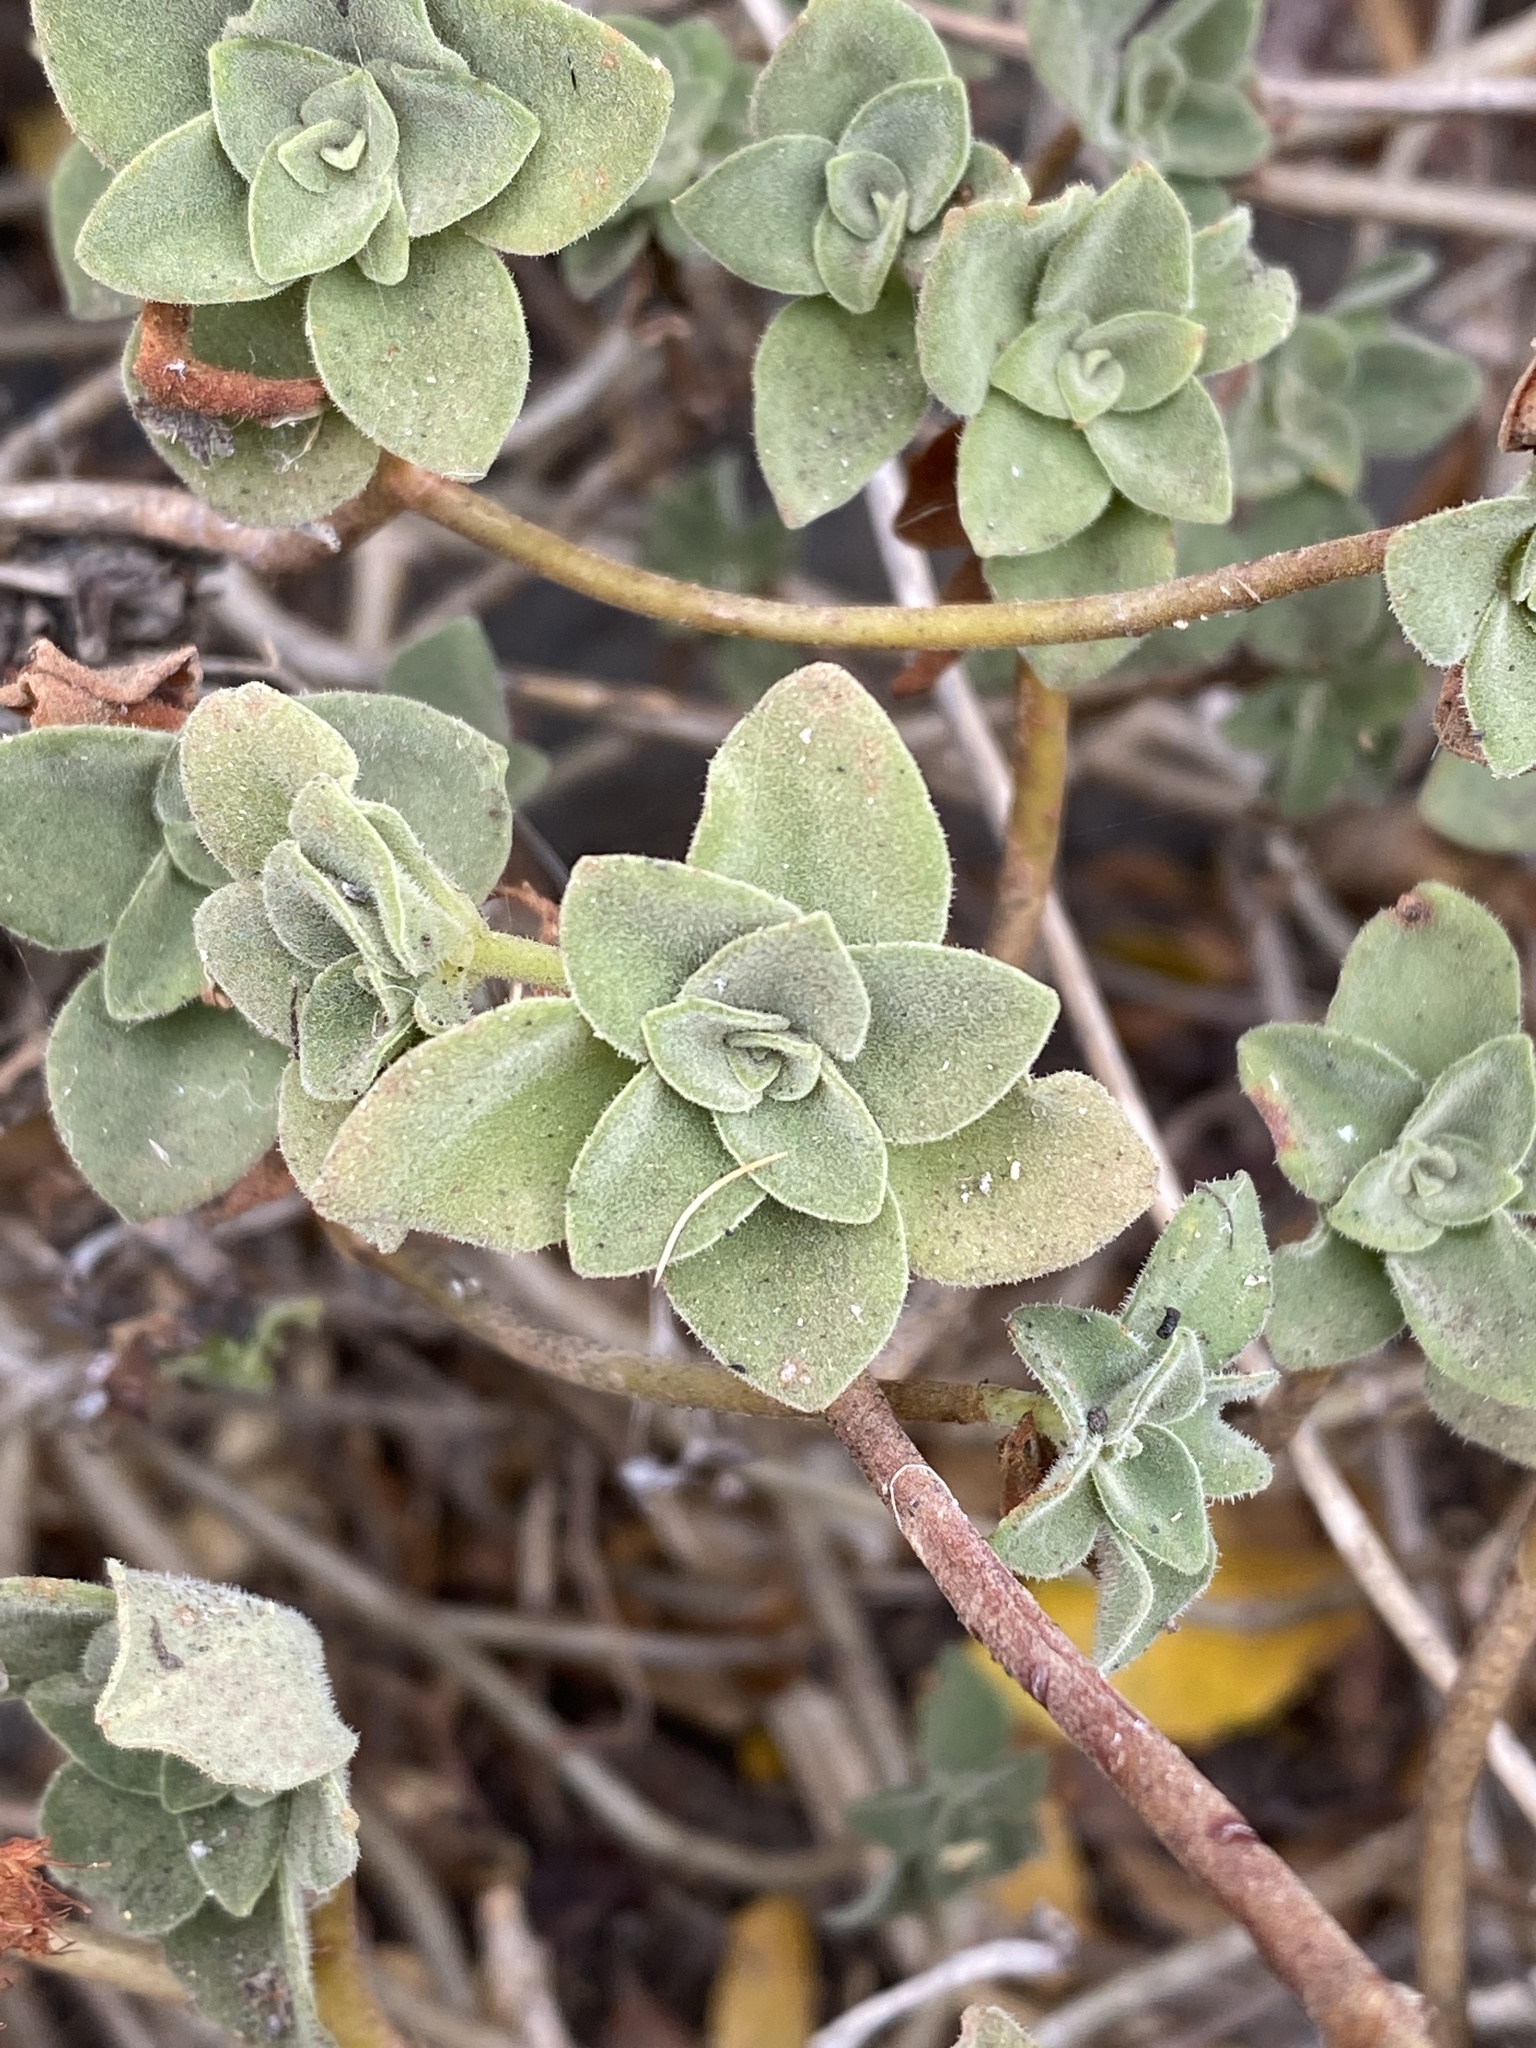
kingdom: Plantae
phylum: Tracheophyta
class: Magnoliopsida
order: Saxifragales
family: Crassulaceae
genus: Aeonium
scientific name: Aeonium goochiae
